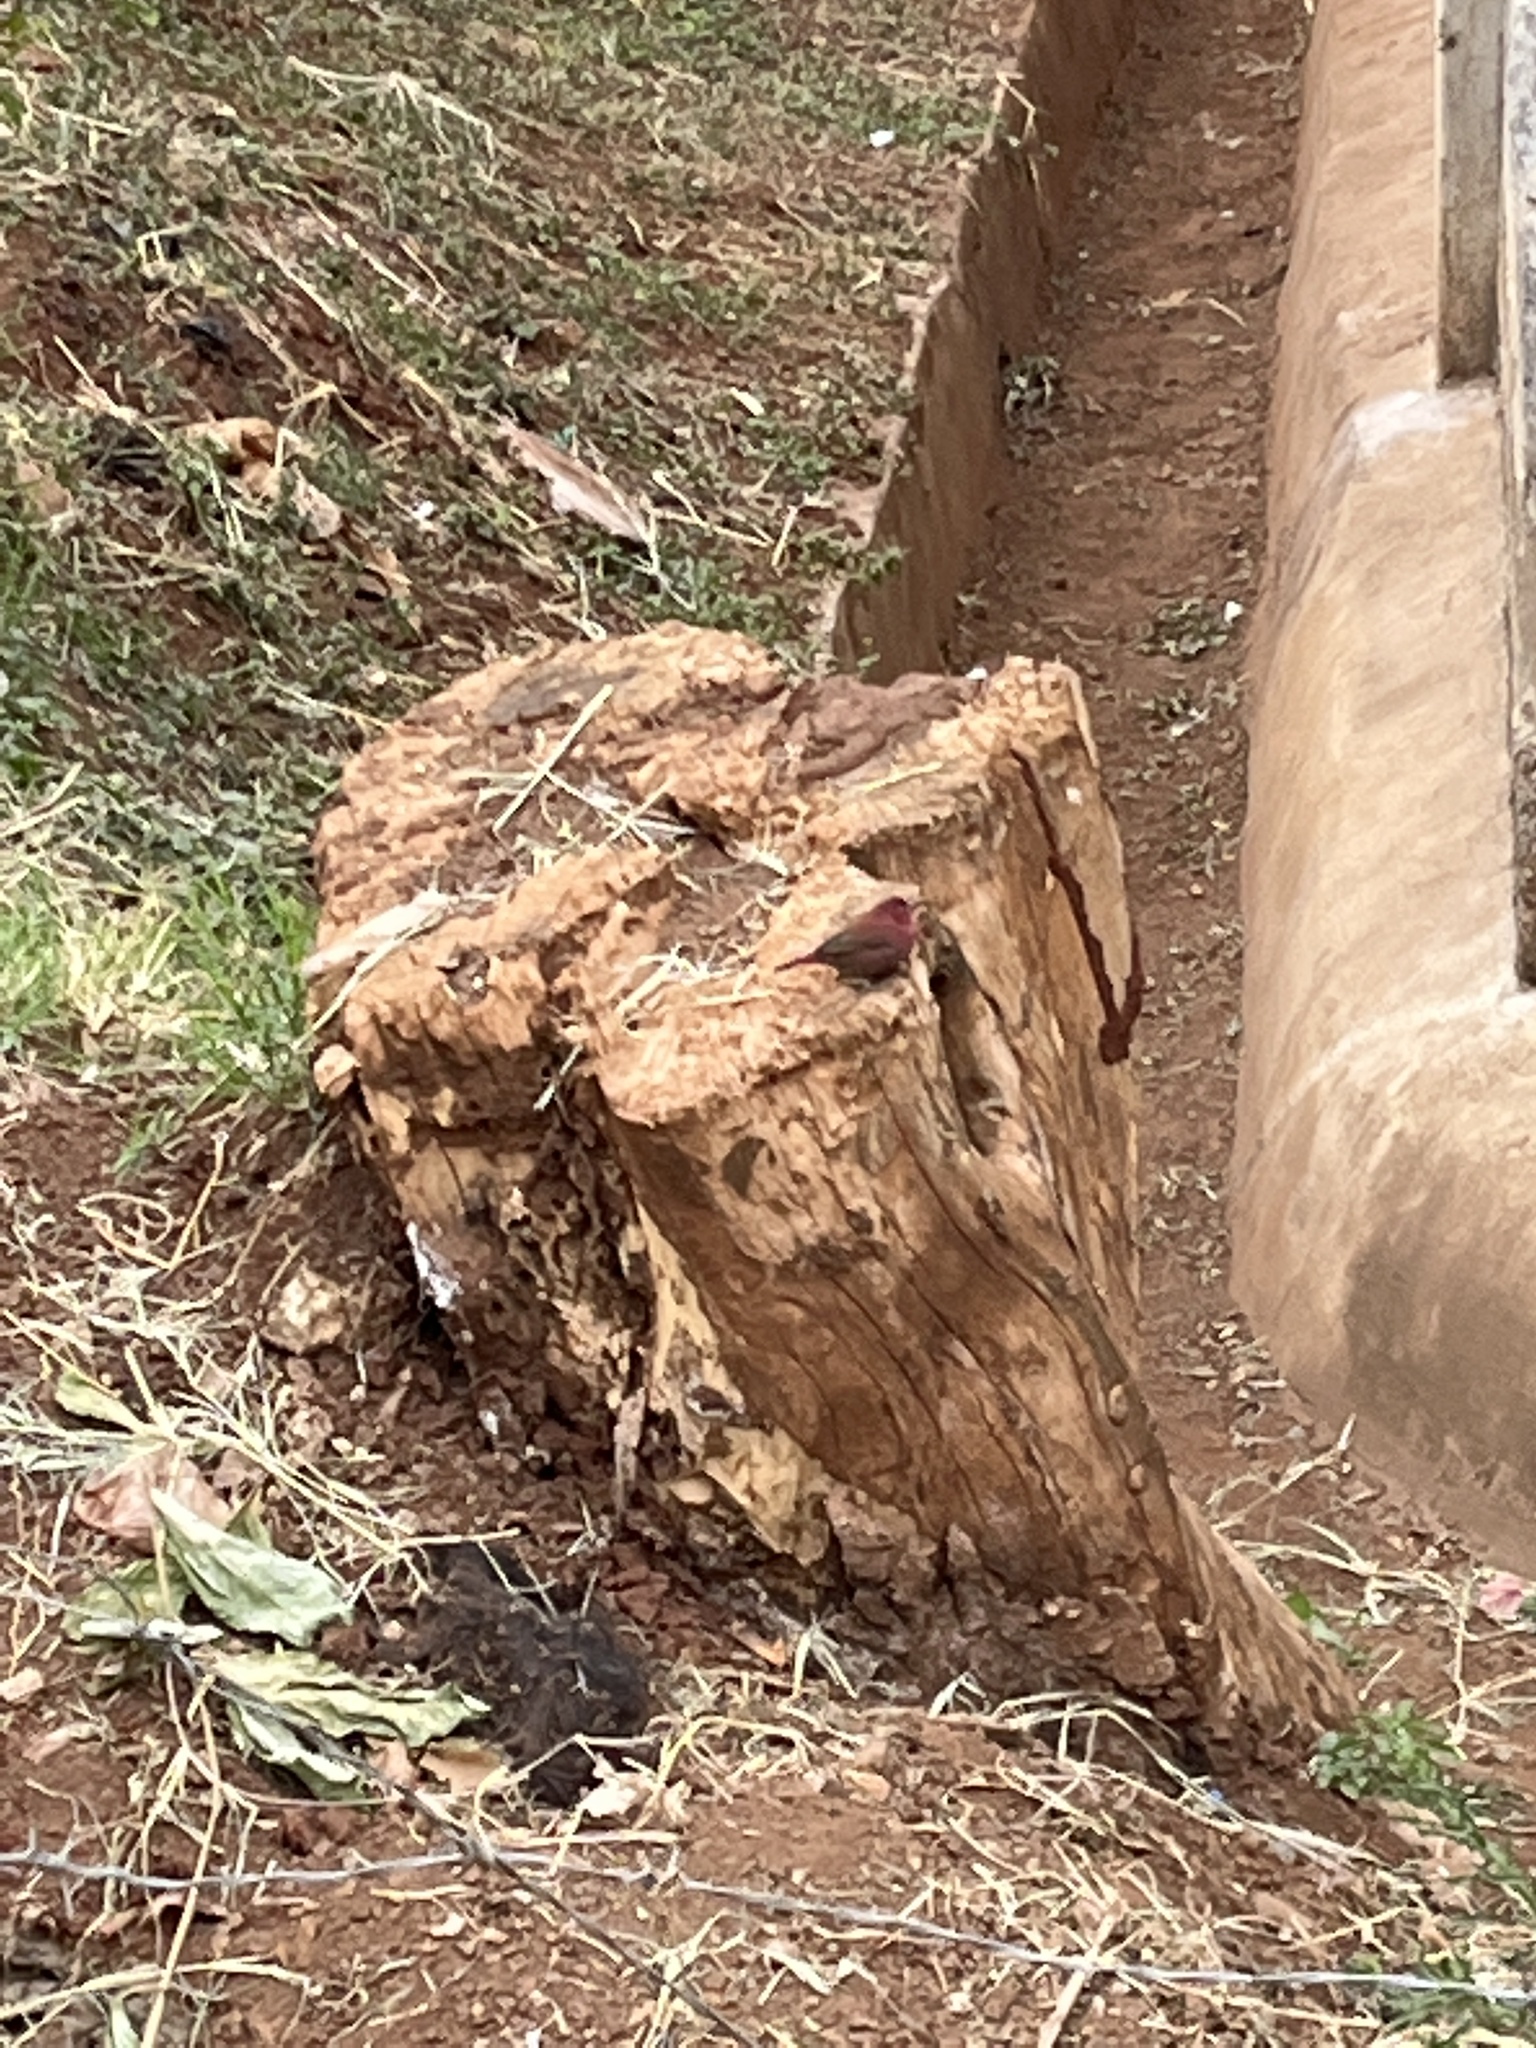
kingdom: Animalia
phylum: Chordata
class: Aves
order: Passeriformes
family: Estrildidae
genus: Lagonosticta
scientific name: Lagonosticta senegala
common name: Red-billed firefinch
